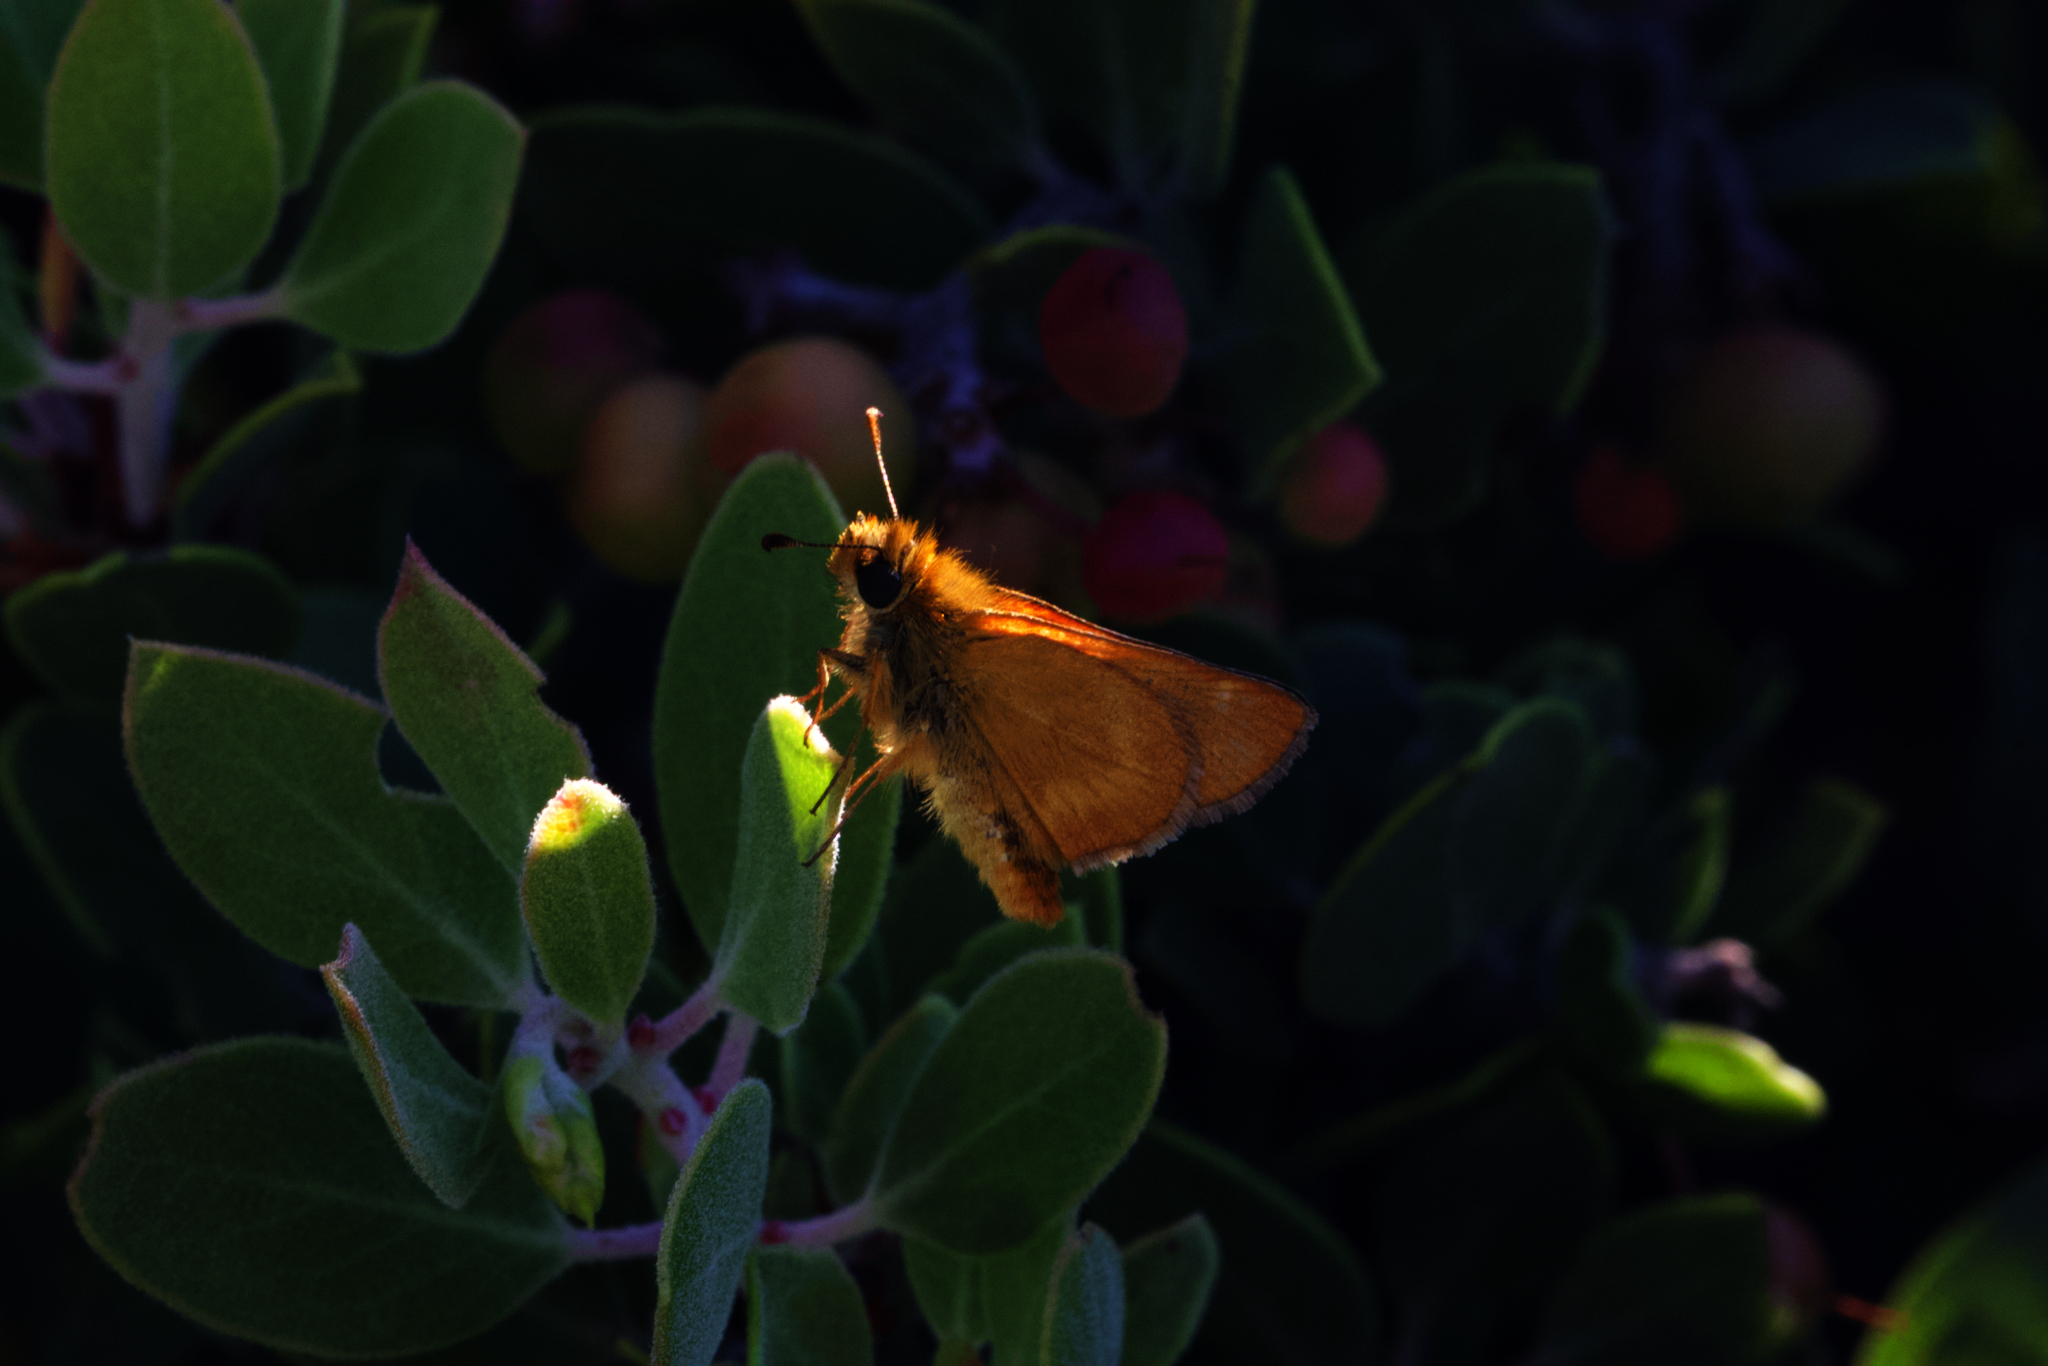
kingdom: Animalia
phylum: Arthropoda
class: Insecta
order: Lepidoptera
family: Hesperiidae
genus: Ochlodes
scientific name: Ochlodes agricola
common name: Rural skipper
